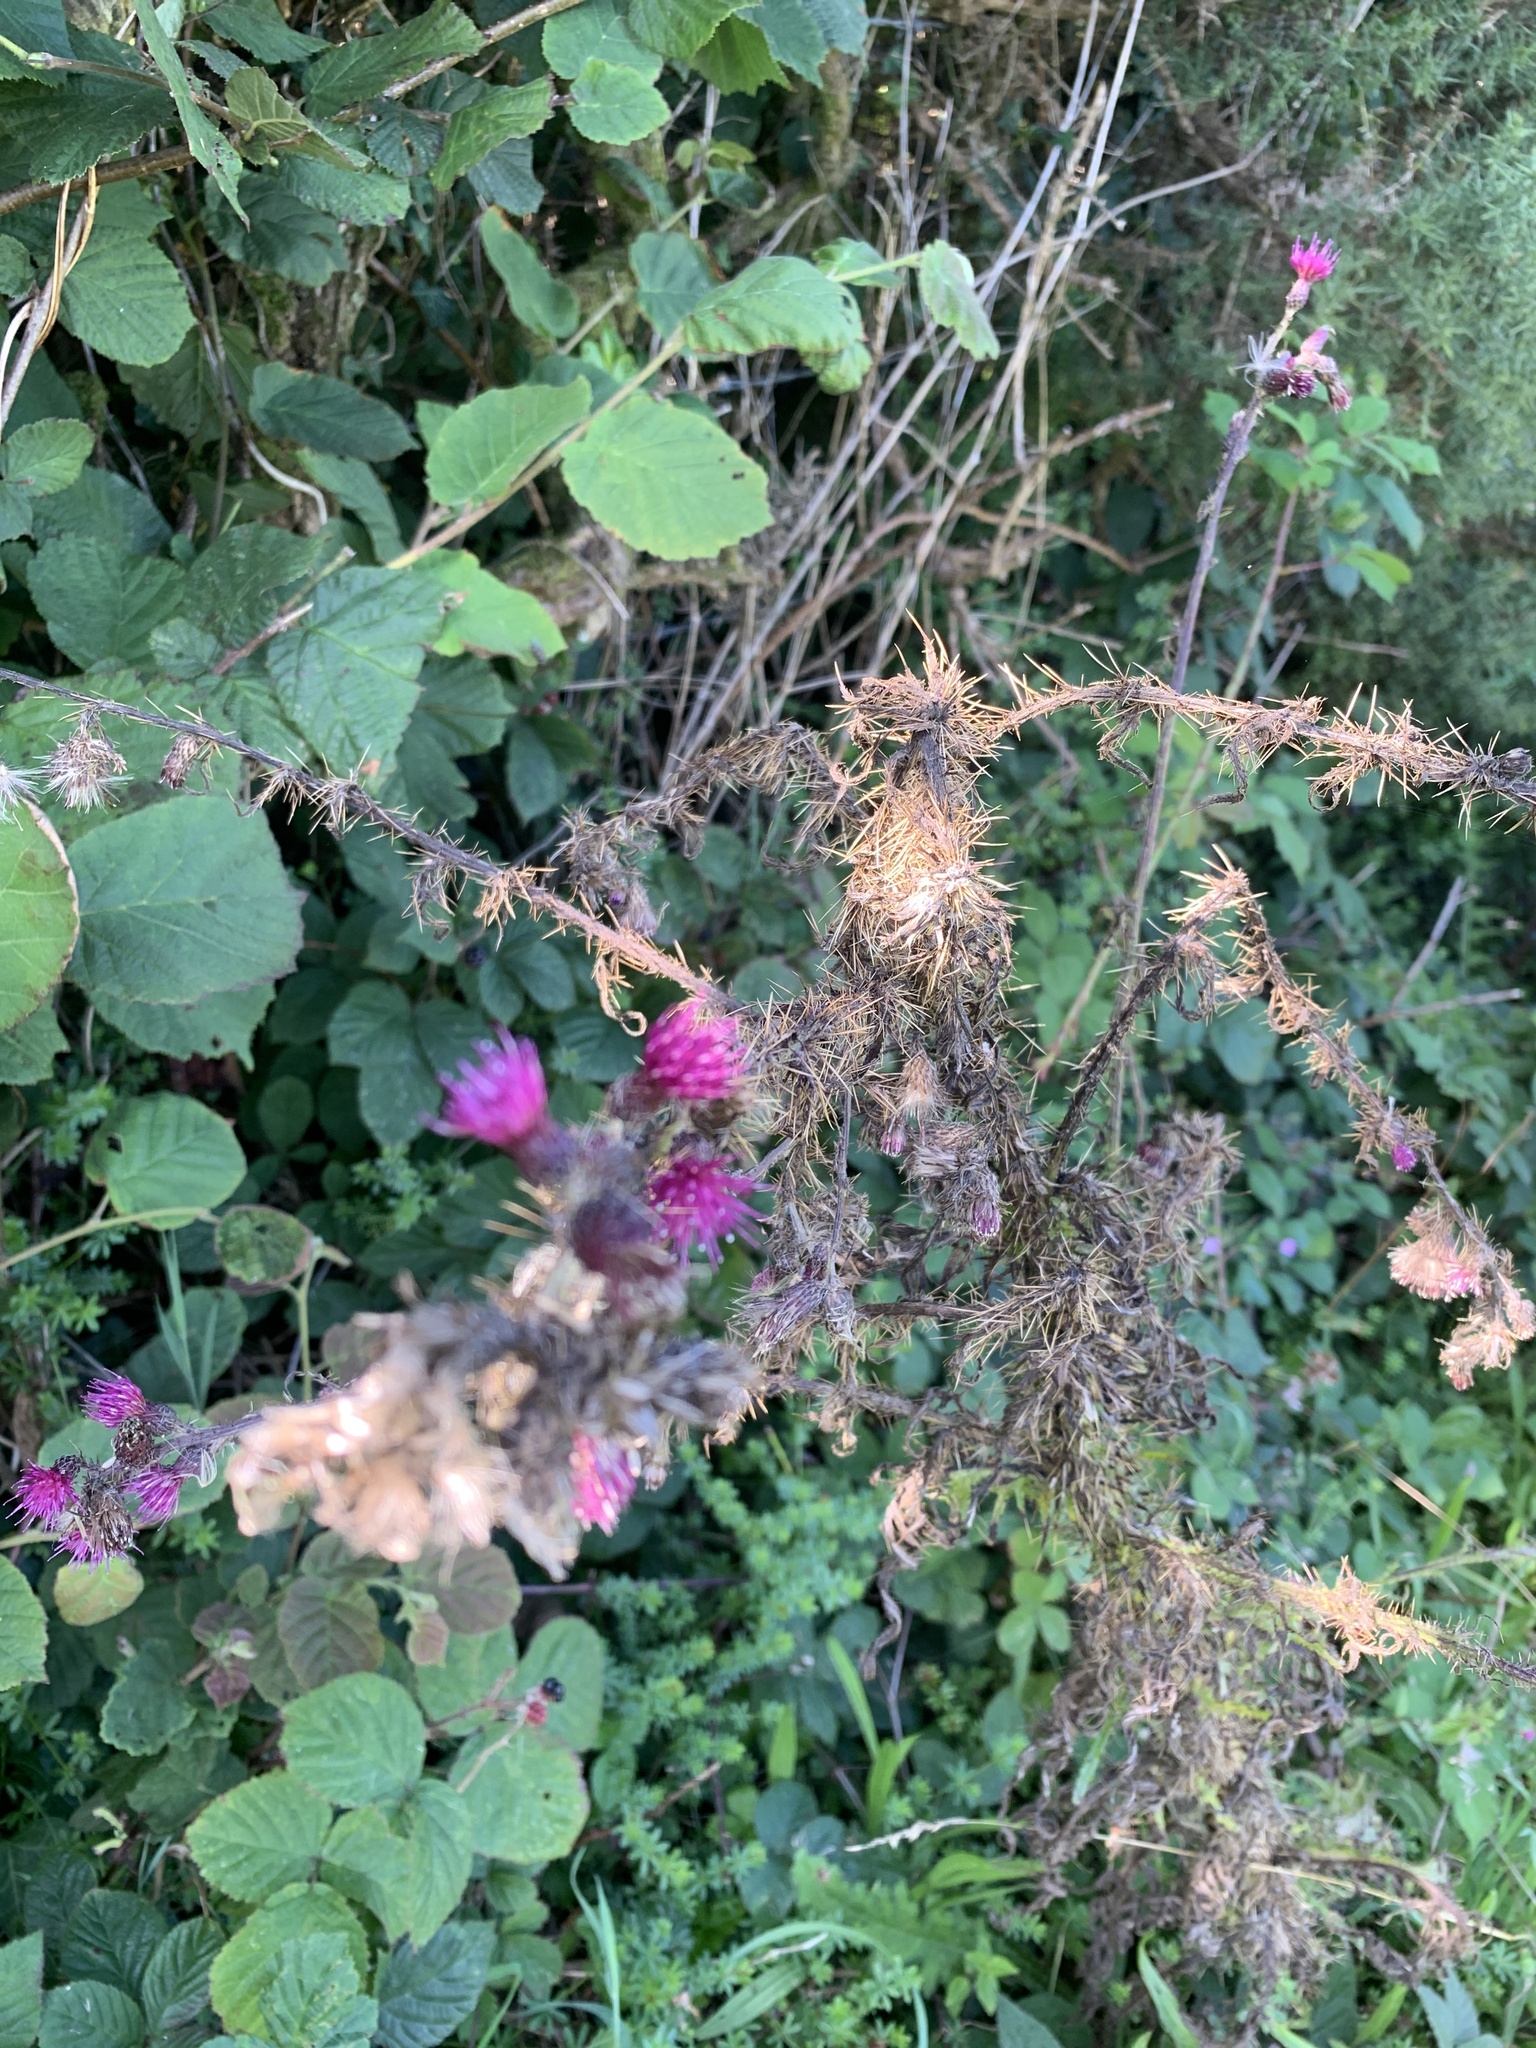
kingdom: Plantae
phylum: Tracheophyta
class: Magnoliopsida
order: Asterales
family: Asteraceae
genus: Cirsium
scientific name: Cirsium palustre
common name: Marsh thistle
